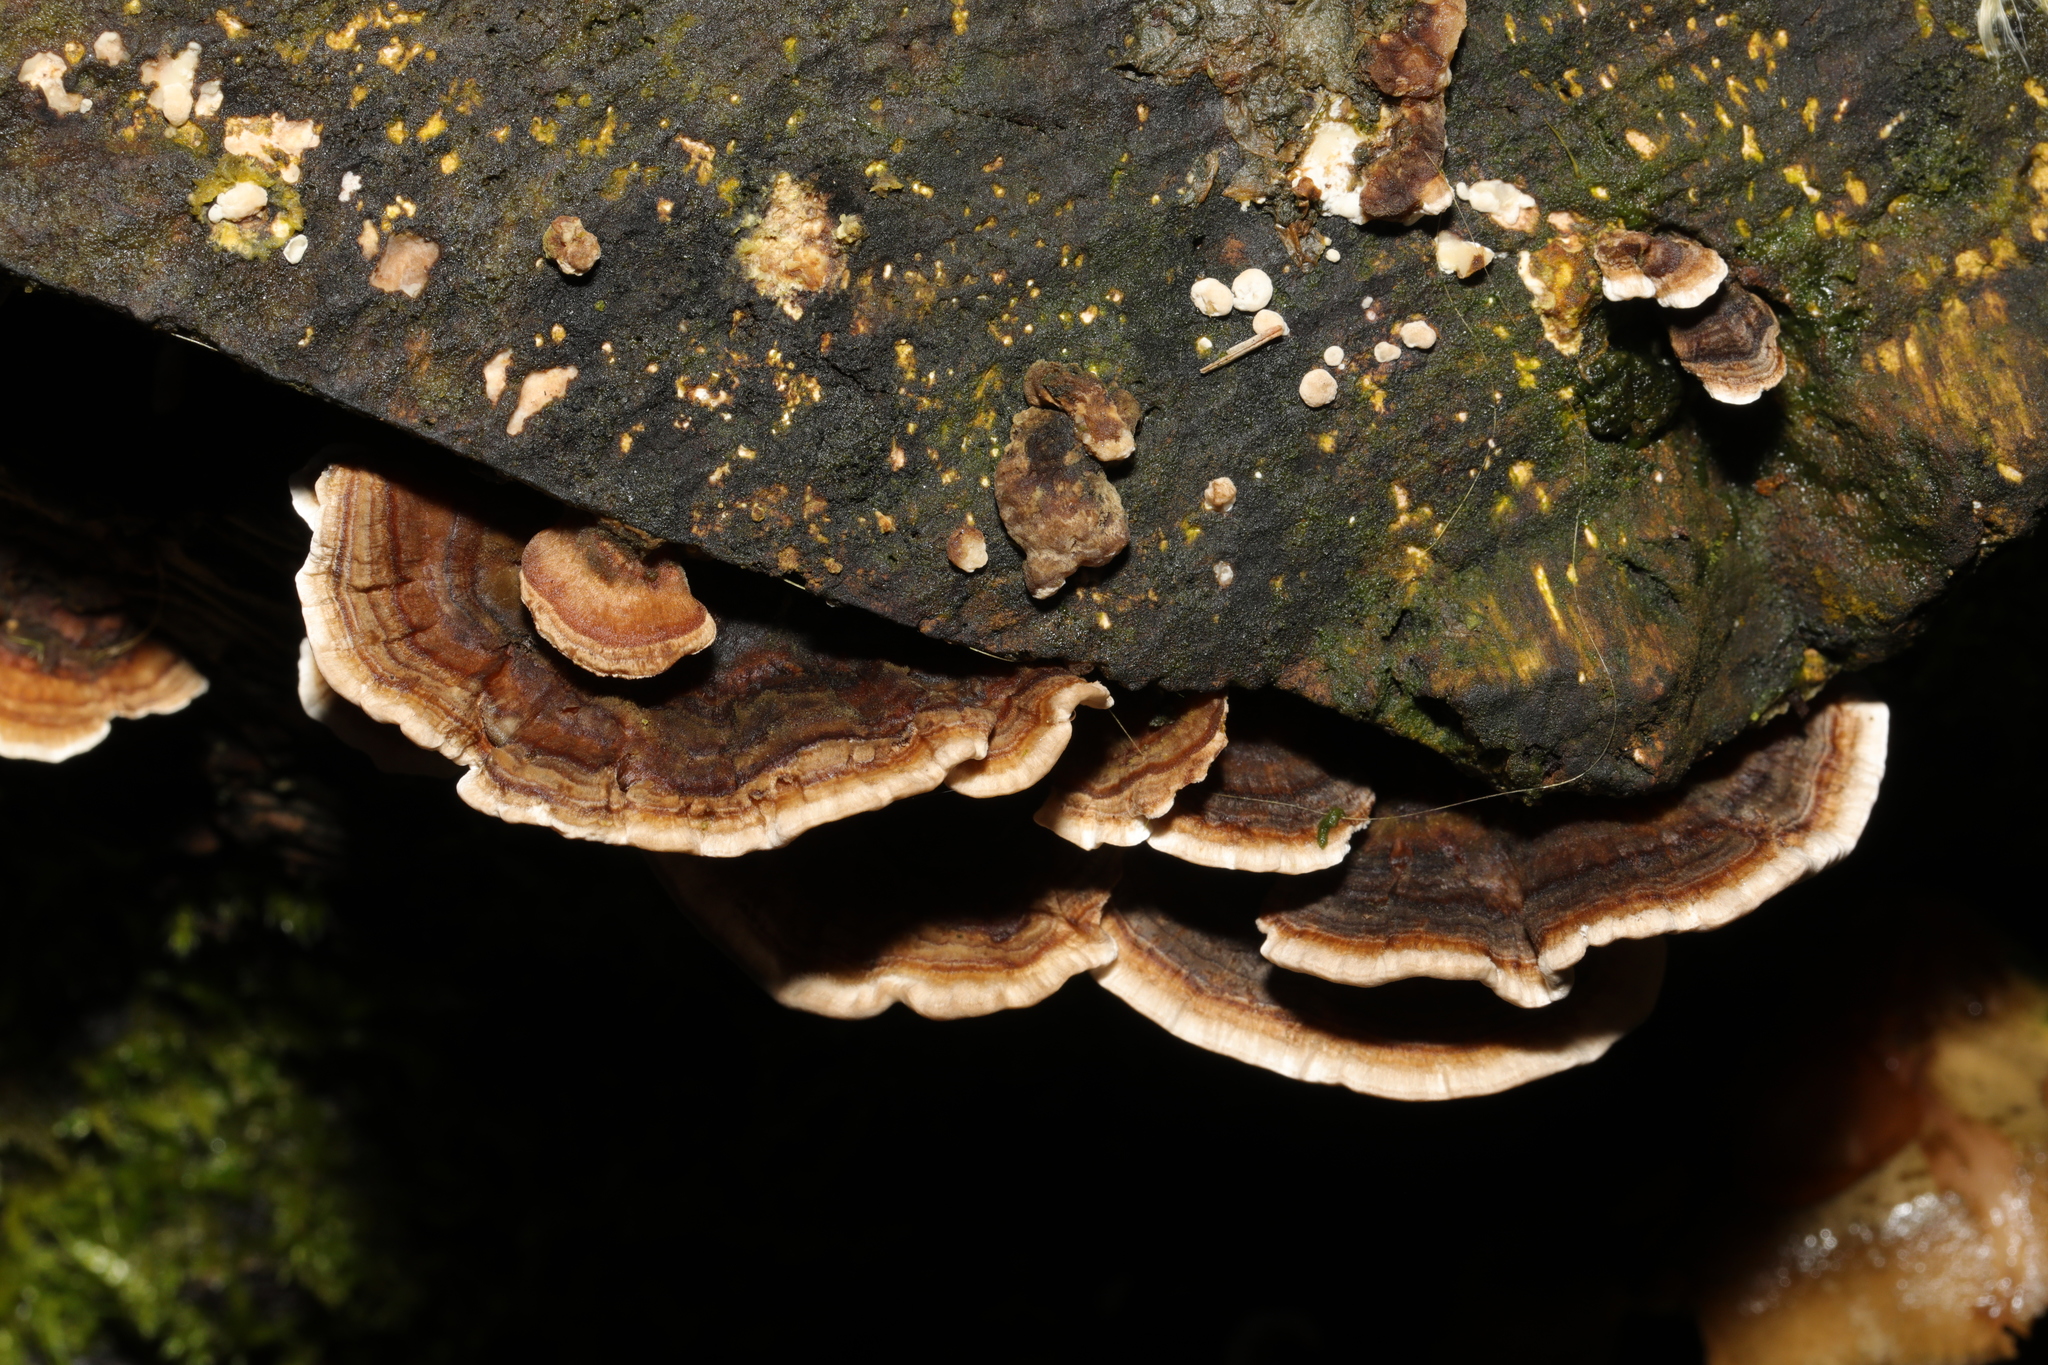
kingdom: Fungi
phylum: Basidiomycota
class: Agaricomycetes
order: Polyporales
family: Polyporaceae
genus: Trametes
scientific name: Trametes versicolor
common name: Turkeytail
